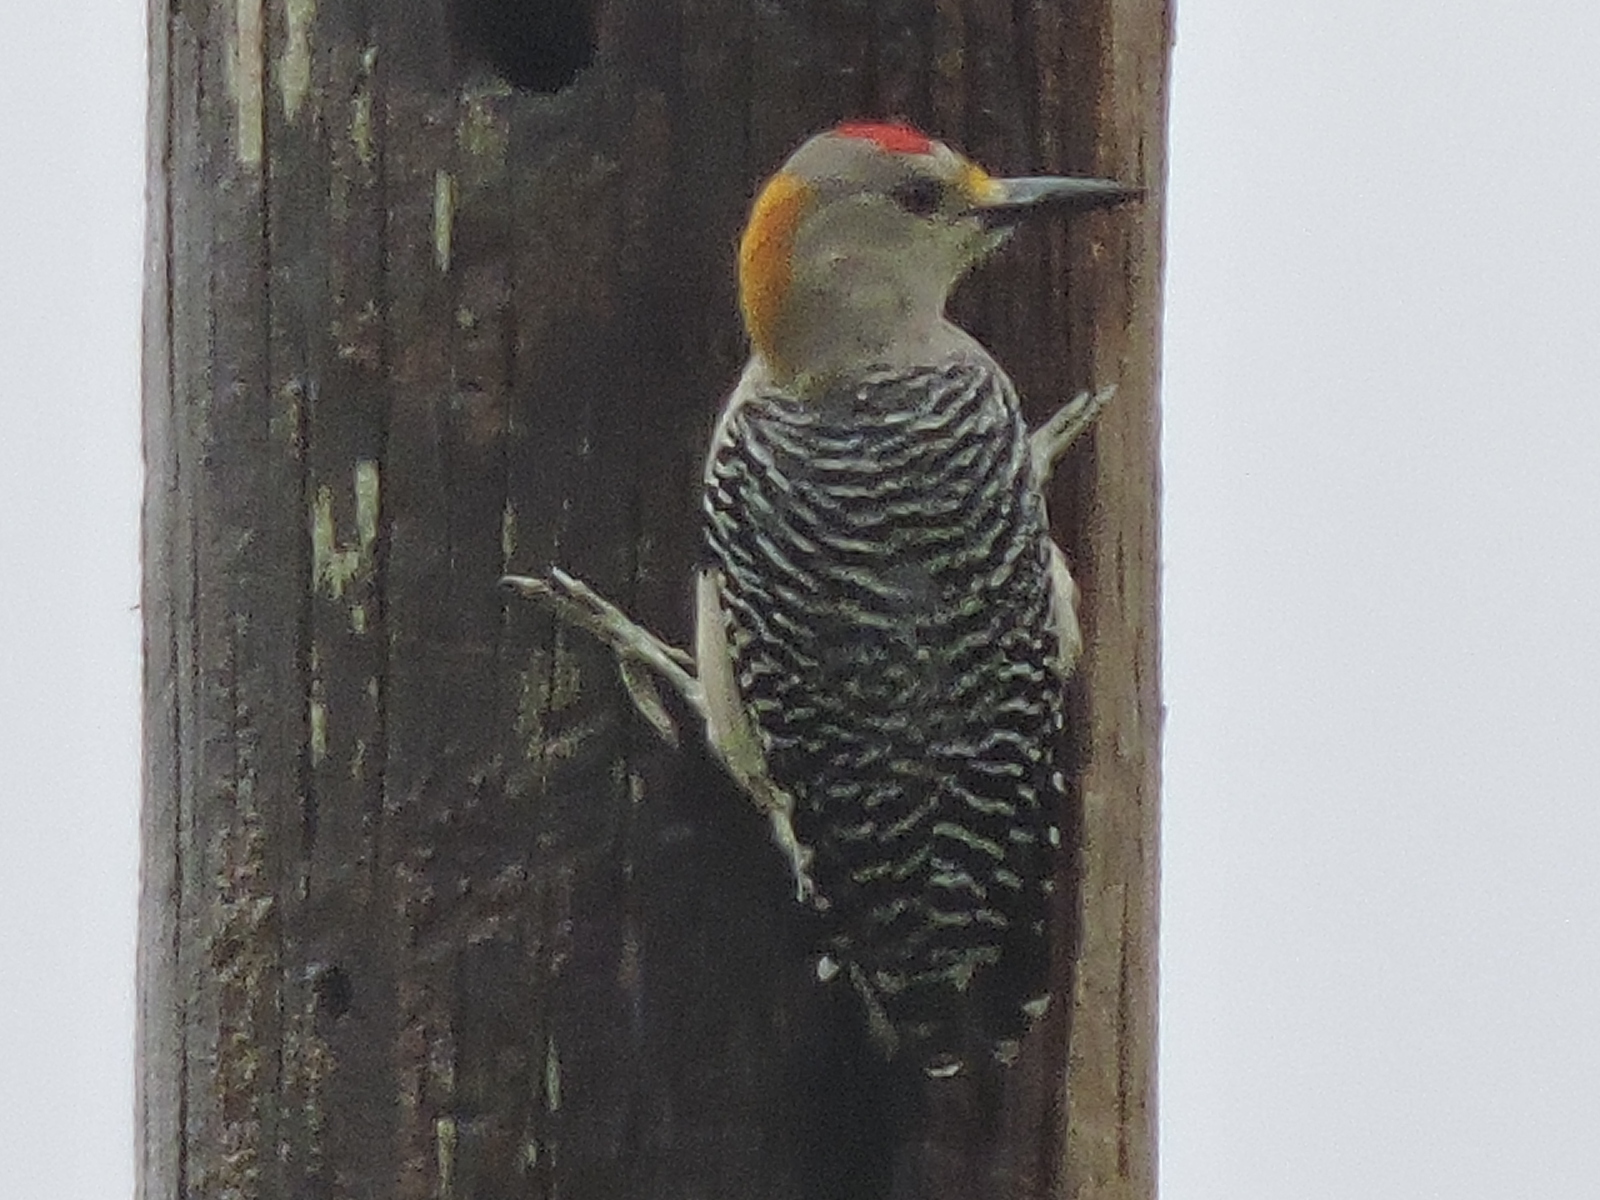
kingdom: Animalia
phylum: Chordata
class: Aves
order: Piciformes
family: Picidae
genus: Melanerpes
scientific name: Melanerpes aurifrons
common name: Golden-fronted woodpecker
